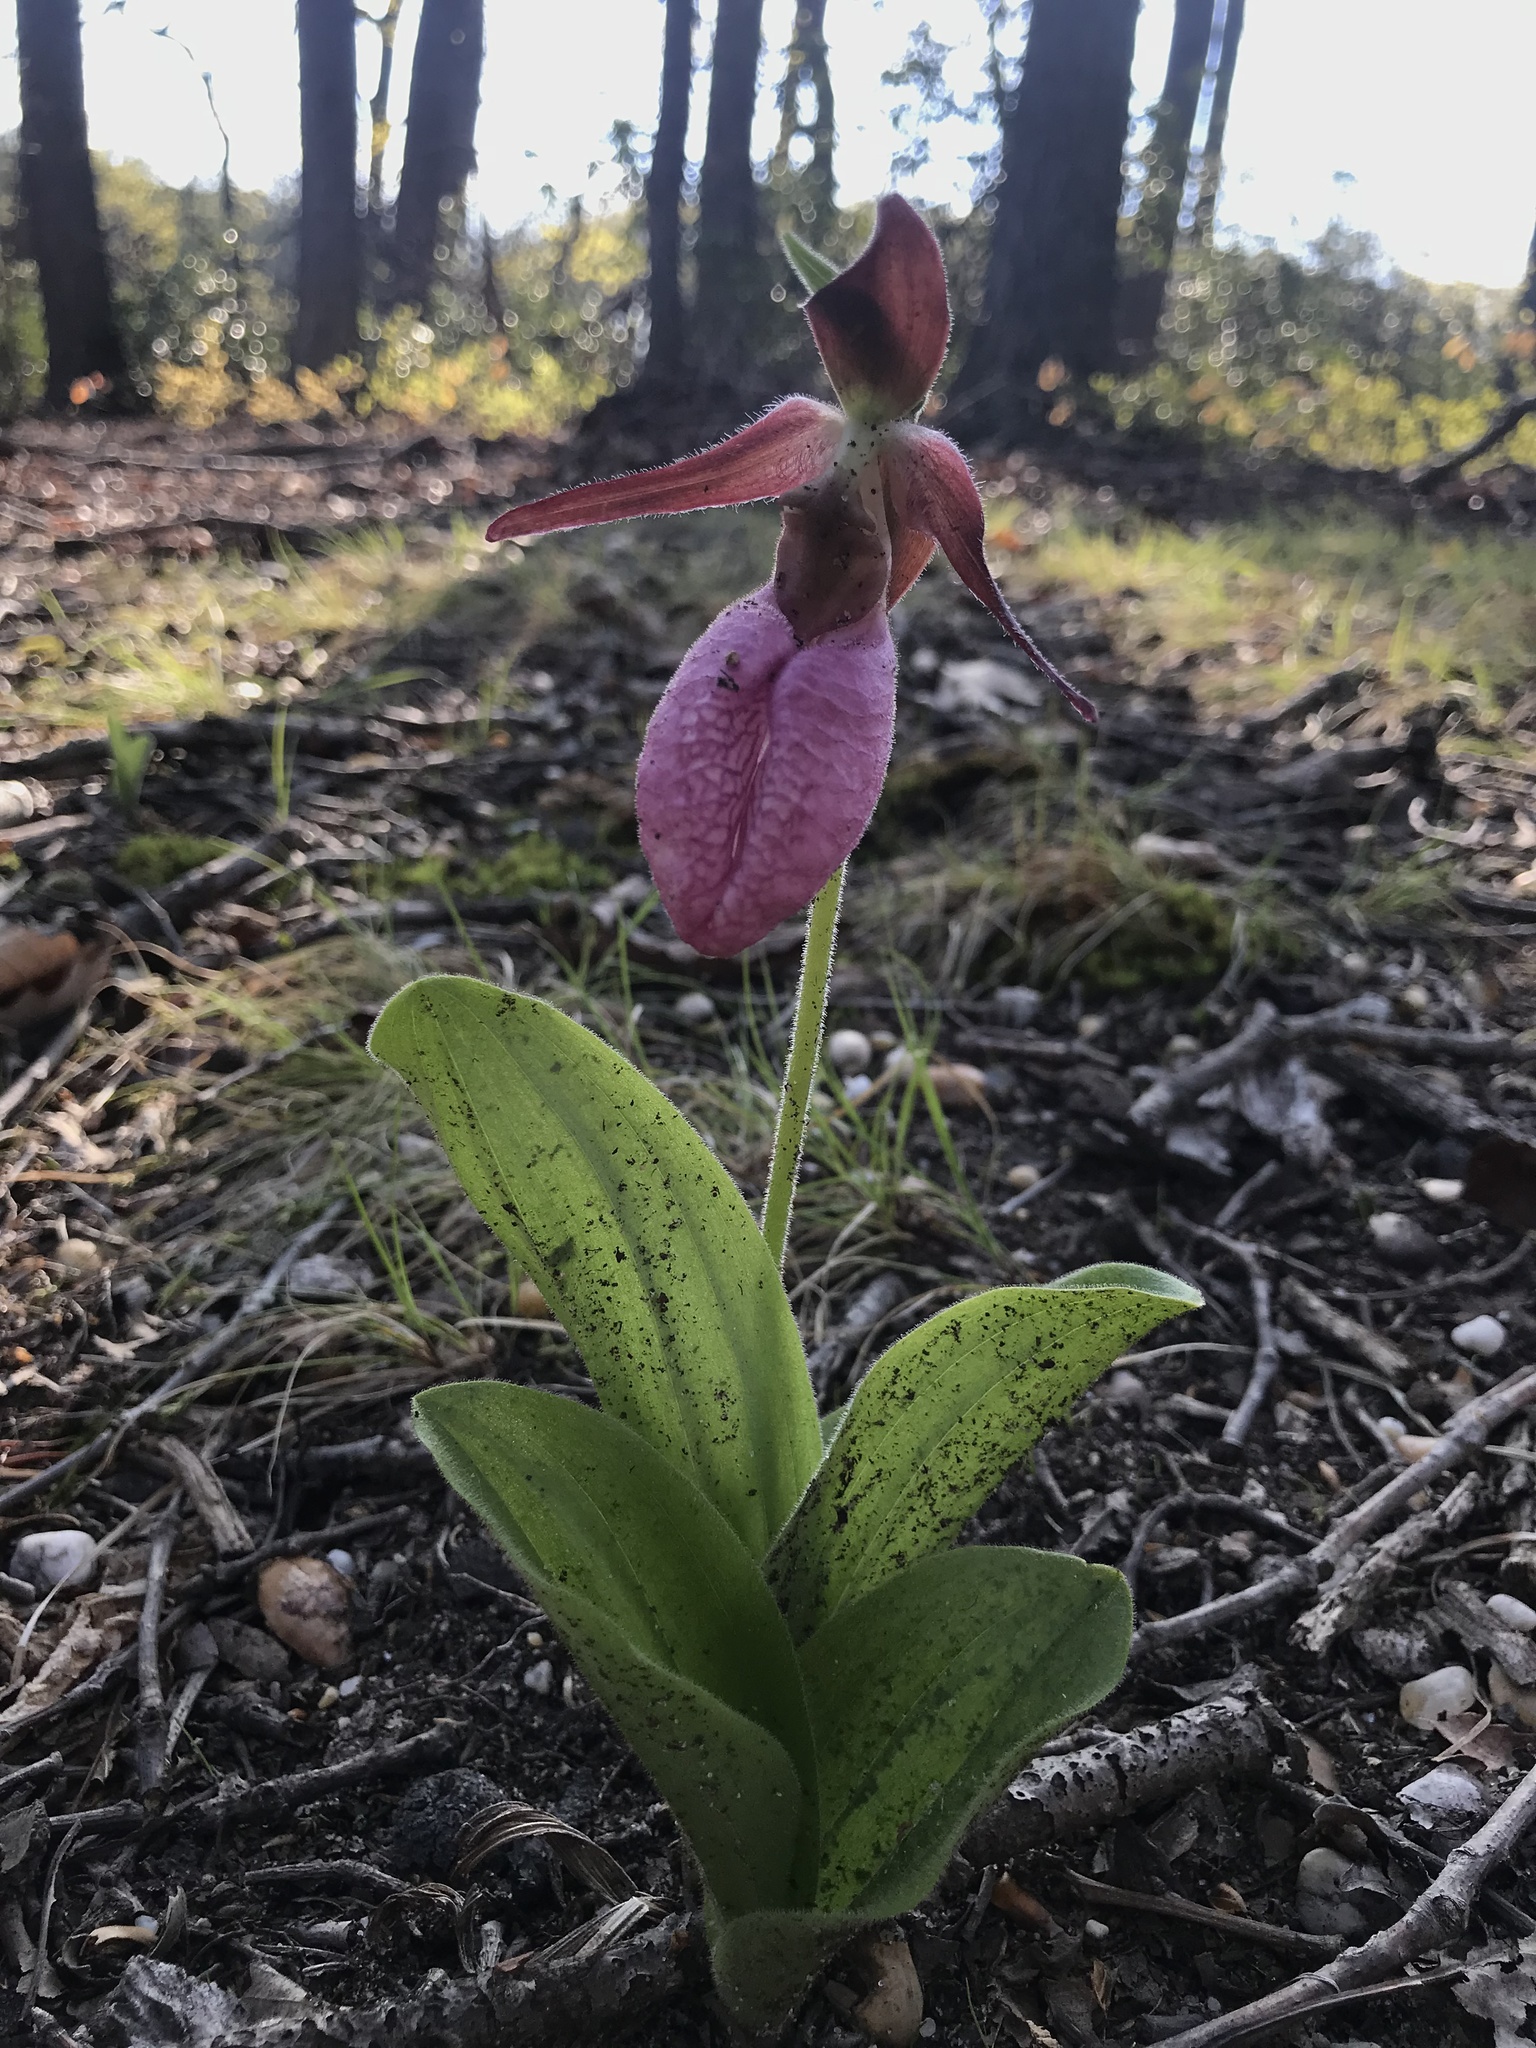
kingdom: Plantae
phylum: Tracheophyta
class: Liliopsida
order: Asparagales
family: Orchidaceae
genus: Cypripedium
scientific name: Cypripedium acaule
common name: Pink lady's-slipper
